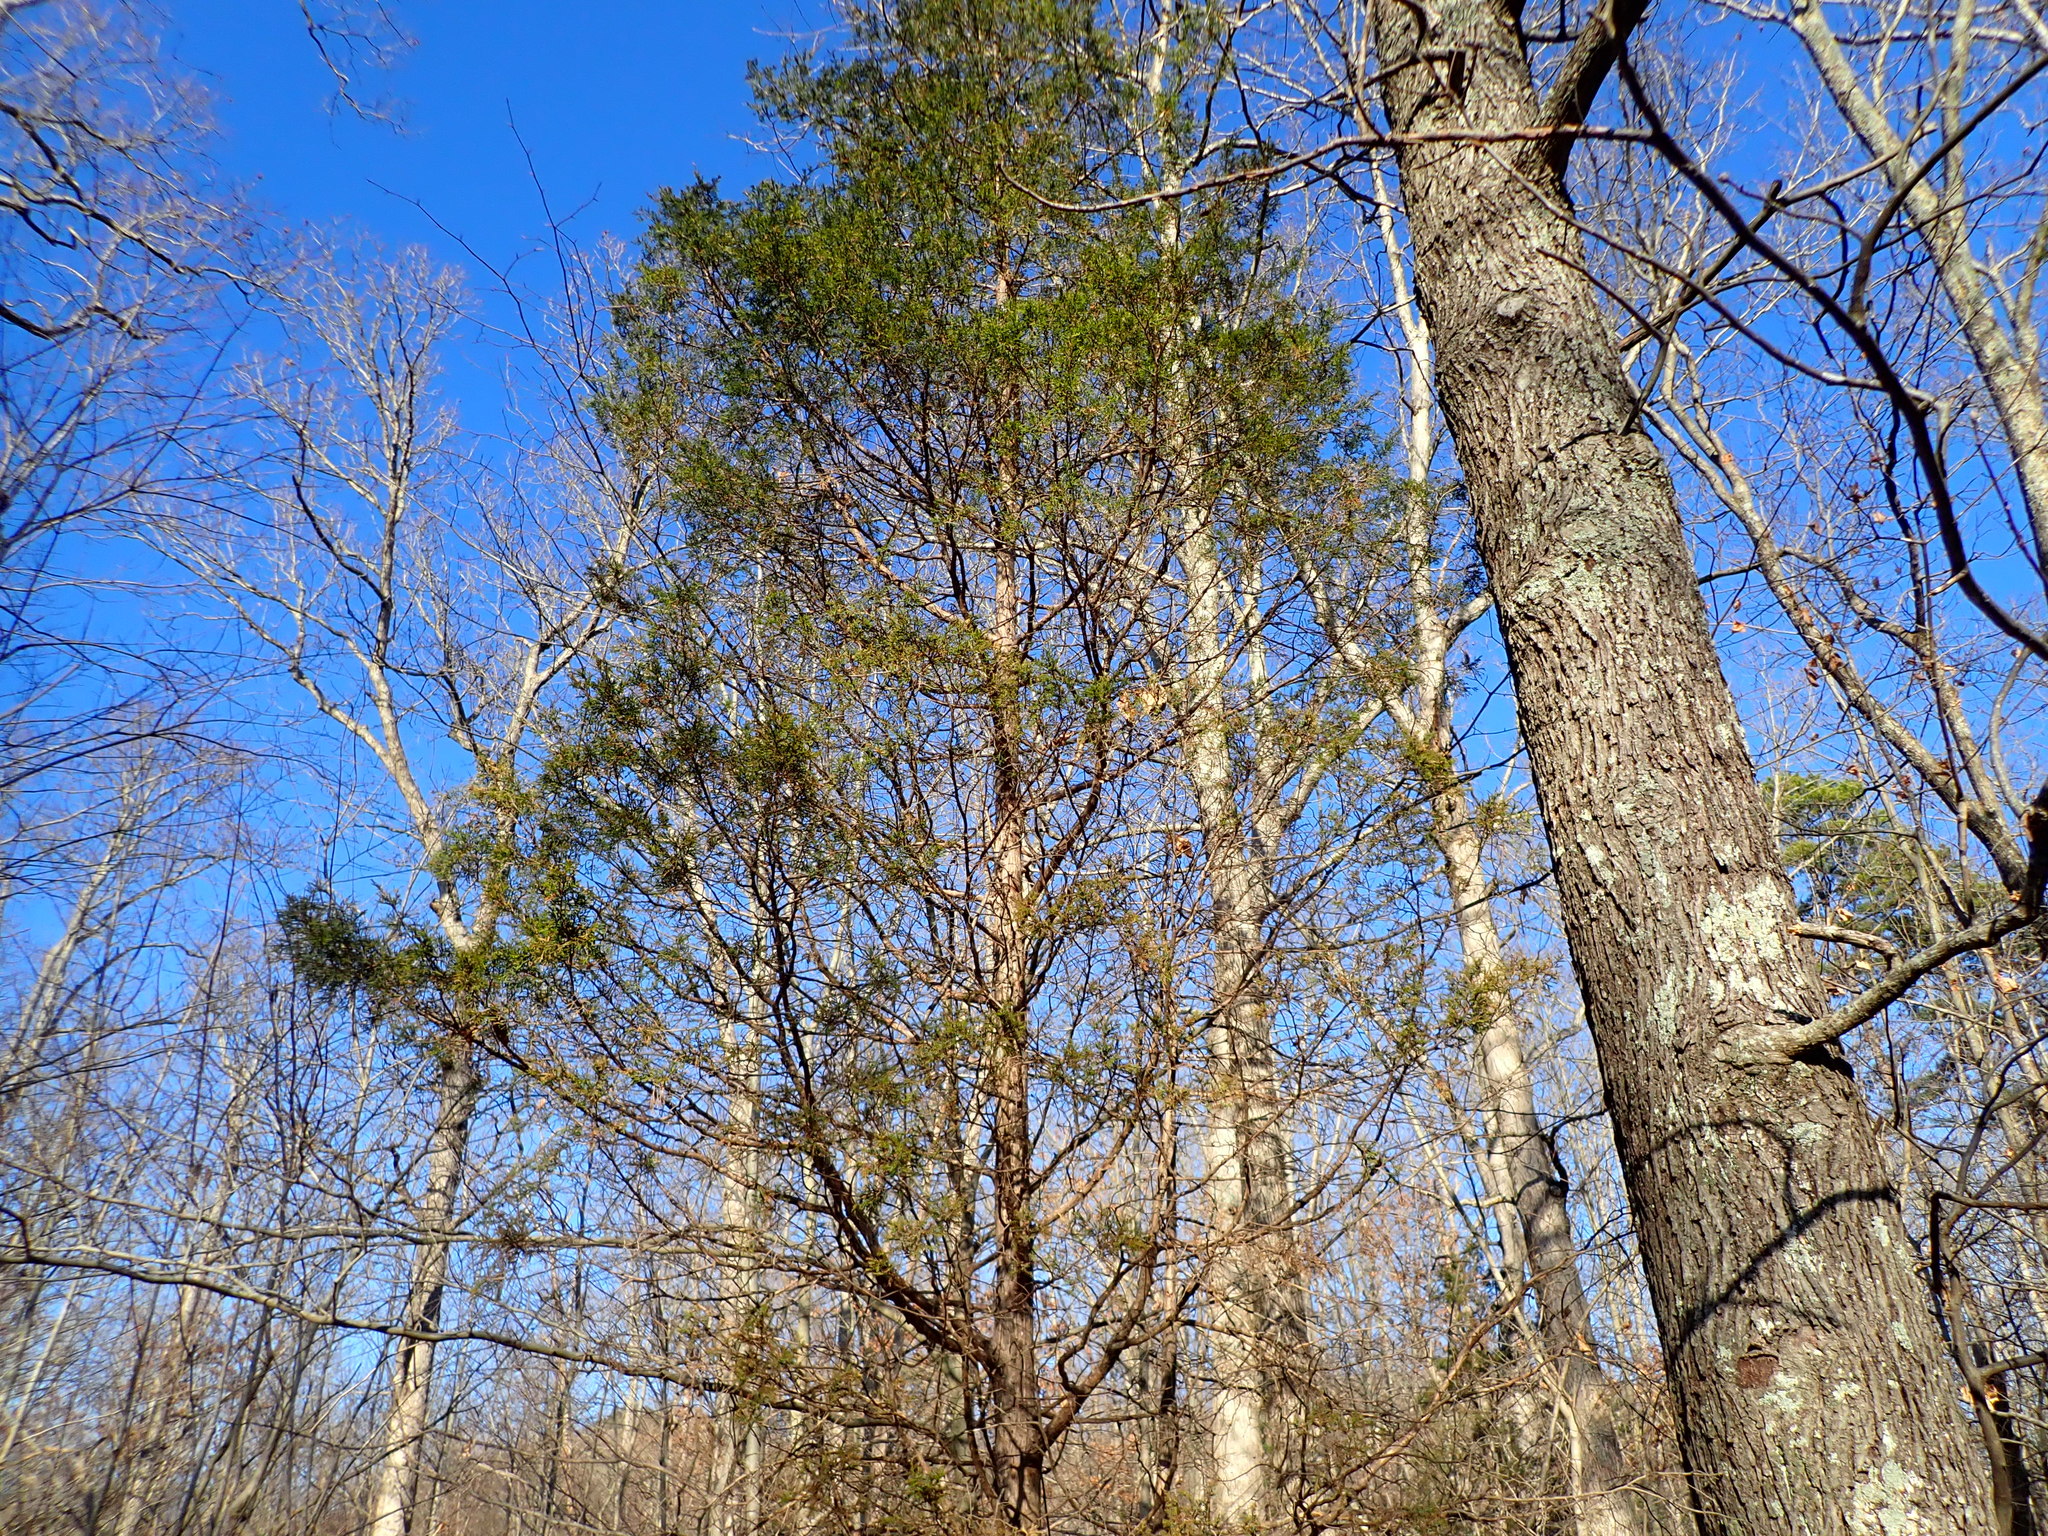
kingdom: Plantae
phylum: Tracheophyta
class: Pinopsida
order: Pinales
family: Cupressaceae
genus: Juniperus
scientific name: Juniperus virginiana
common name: Red juniper
